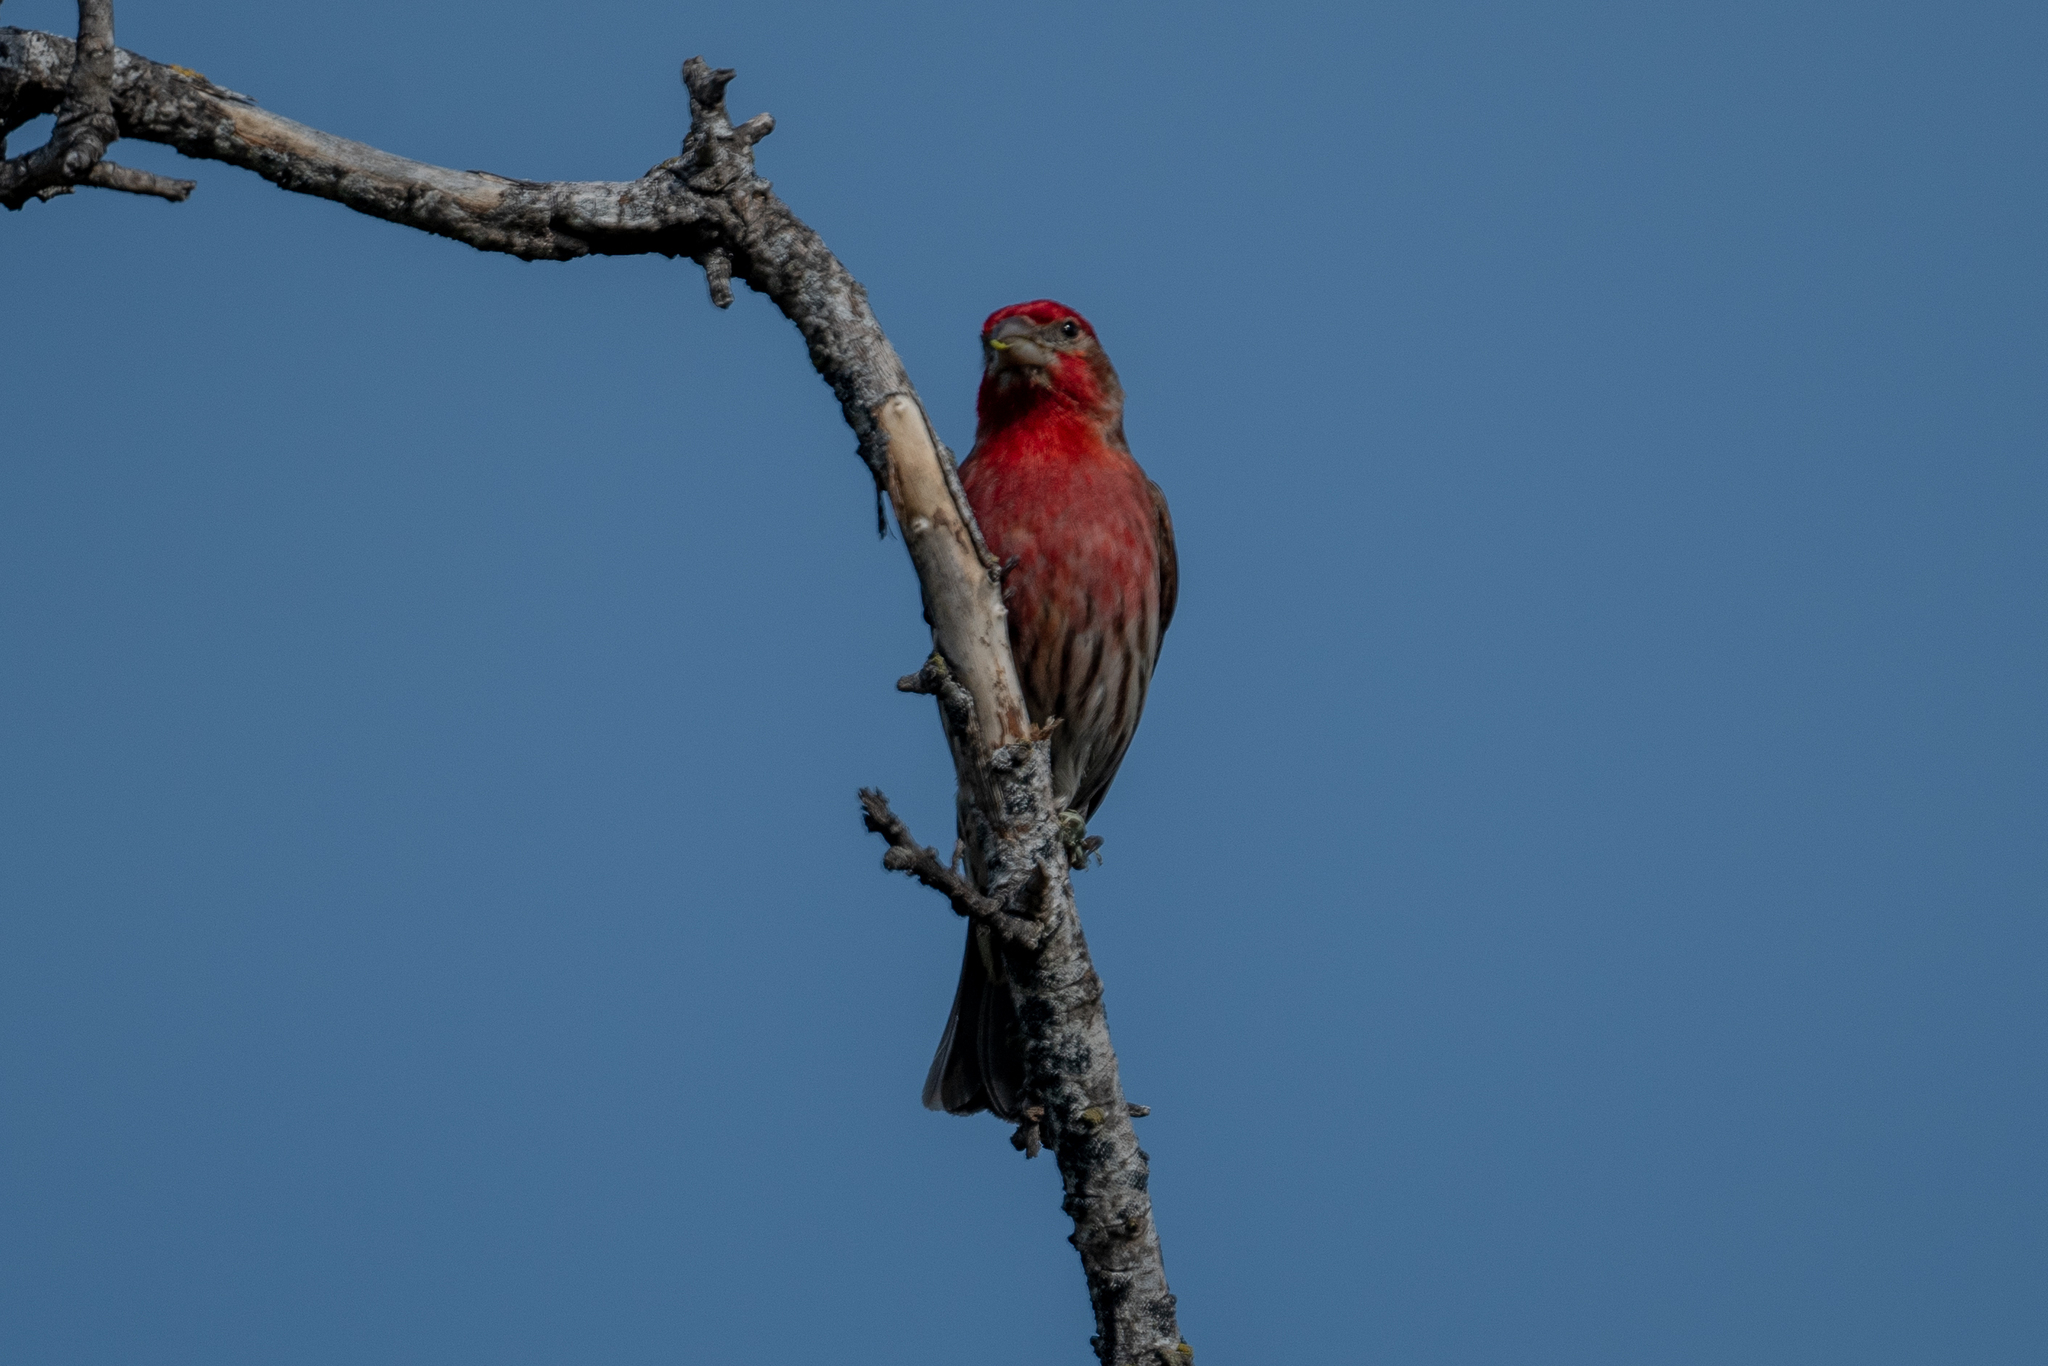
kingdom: Animalia
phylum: Chordata
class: Aves
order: Passeriformes
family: Fringillidae
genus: Haemorhous
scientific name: Haemorhous mexicanus
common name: House finch
